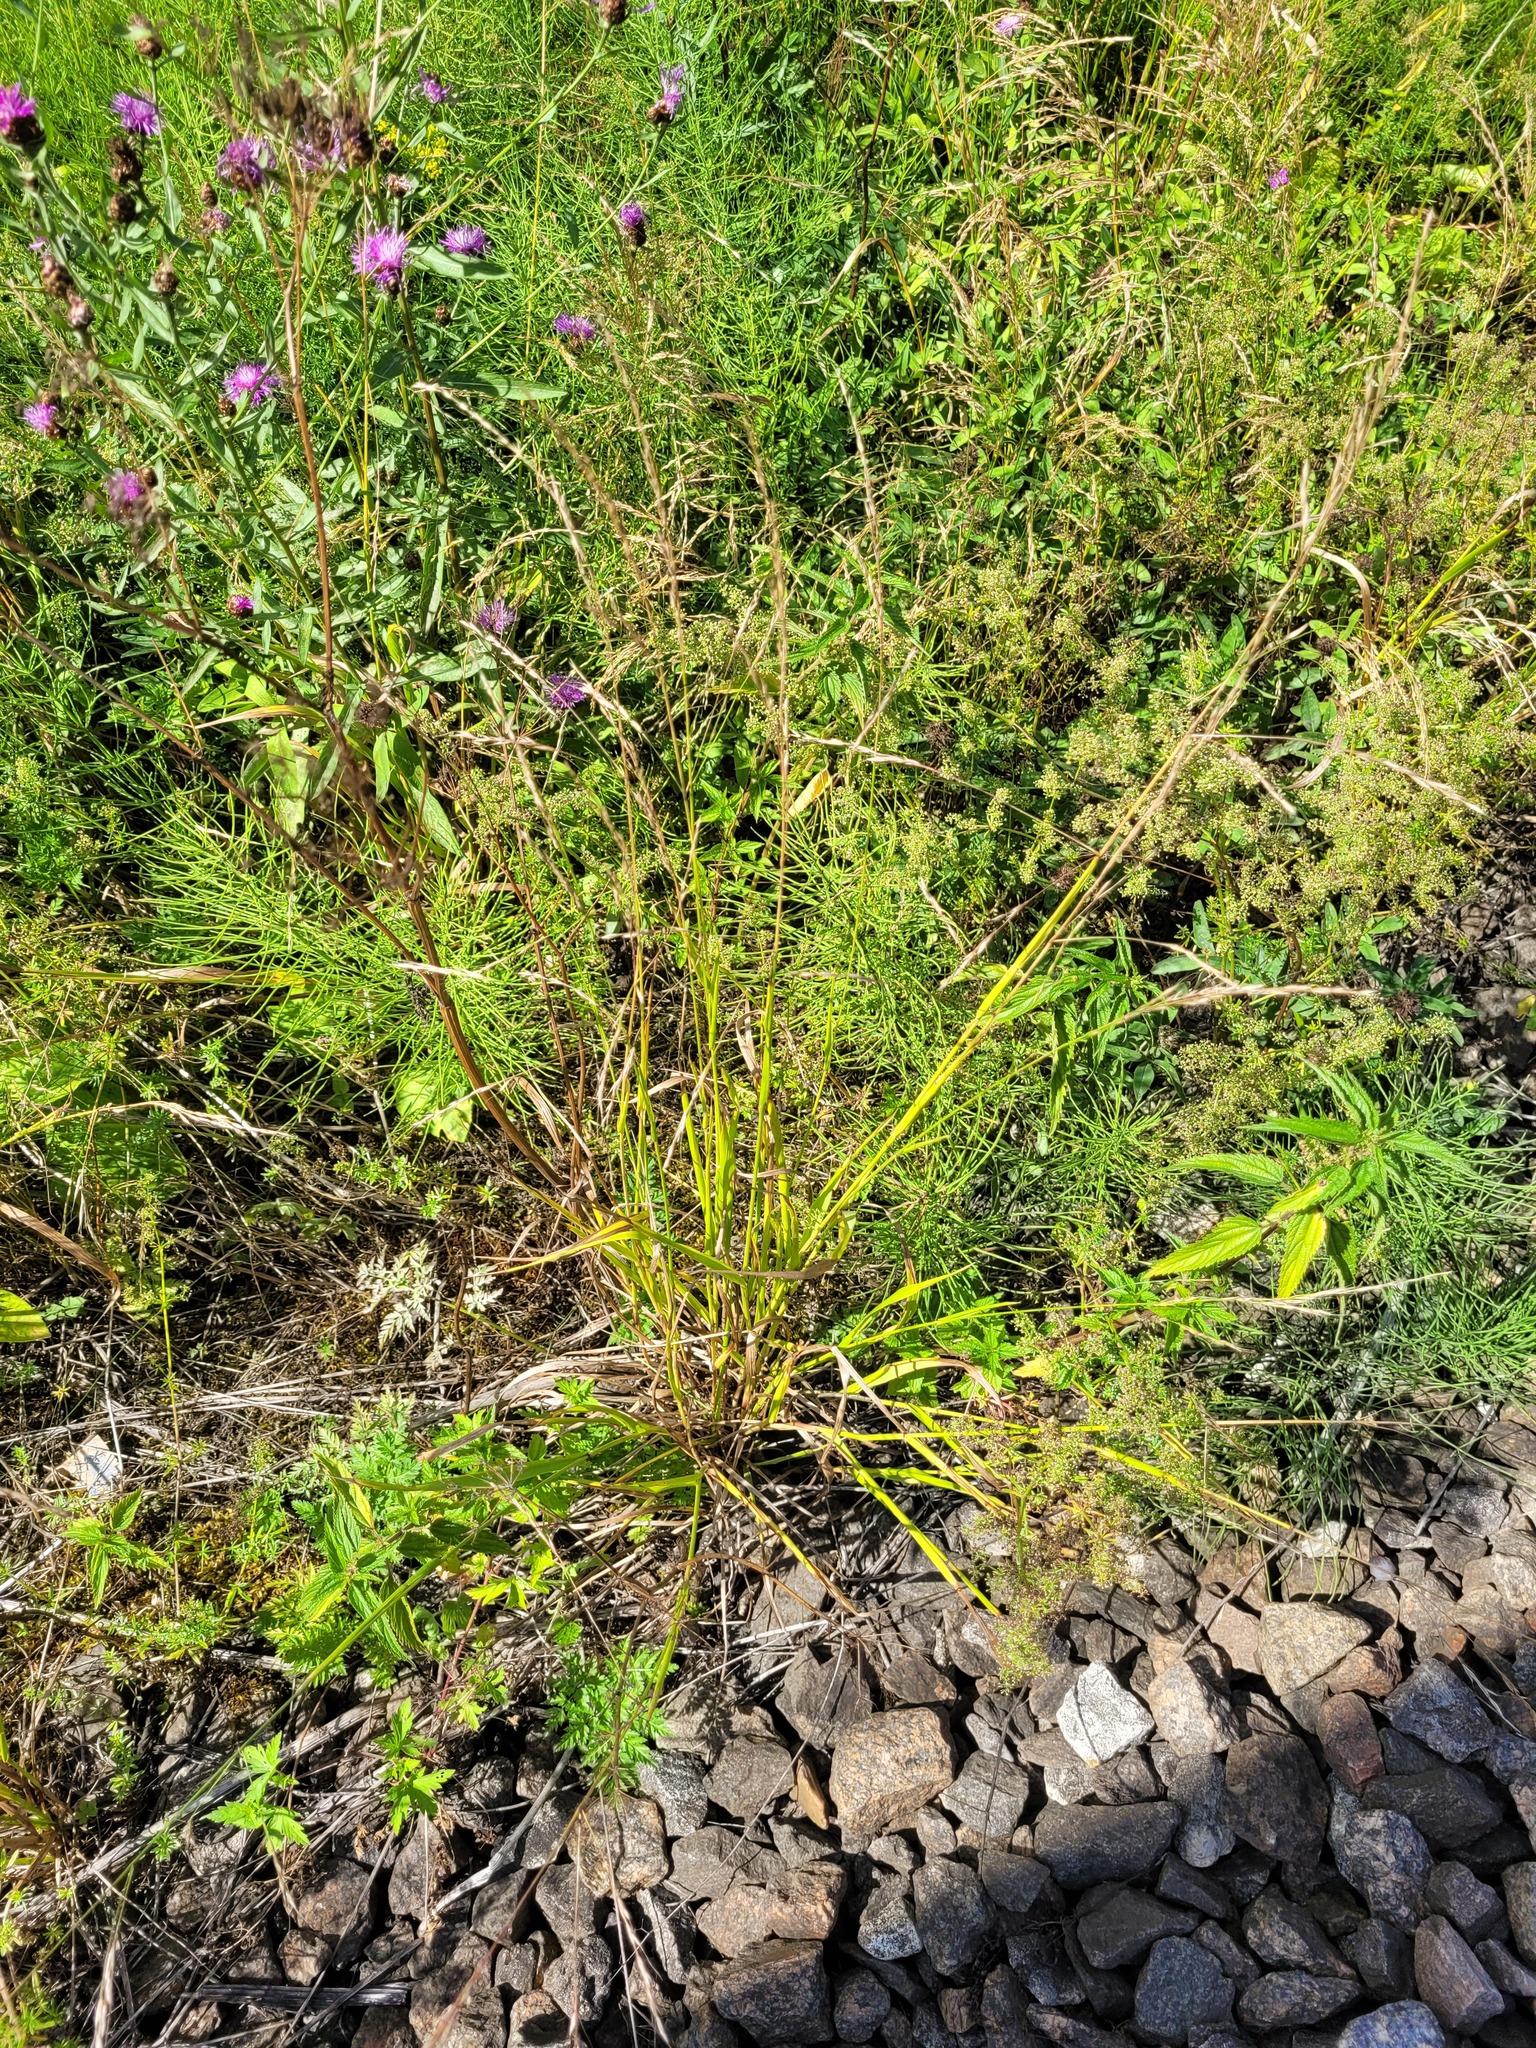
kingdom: Plantae
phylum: Tracheophyta
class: Liliopsida
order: Poales
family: Poaceae
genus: Lolium
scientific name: Lolium giganteum
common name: Giant fescue
